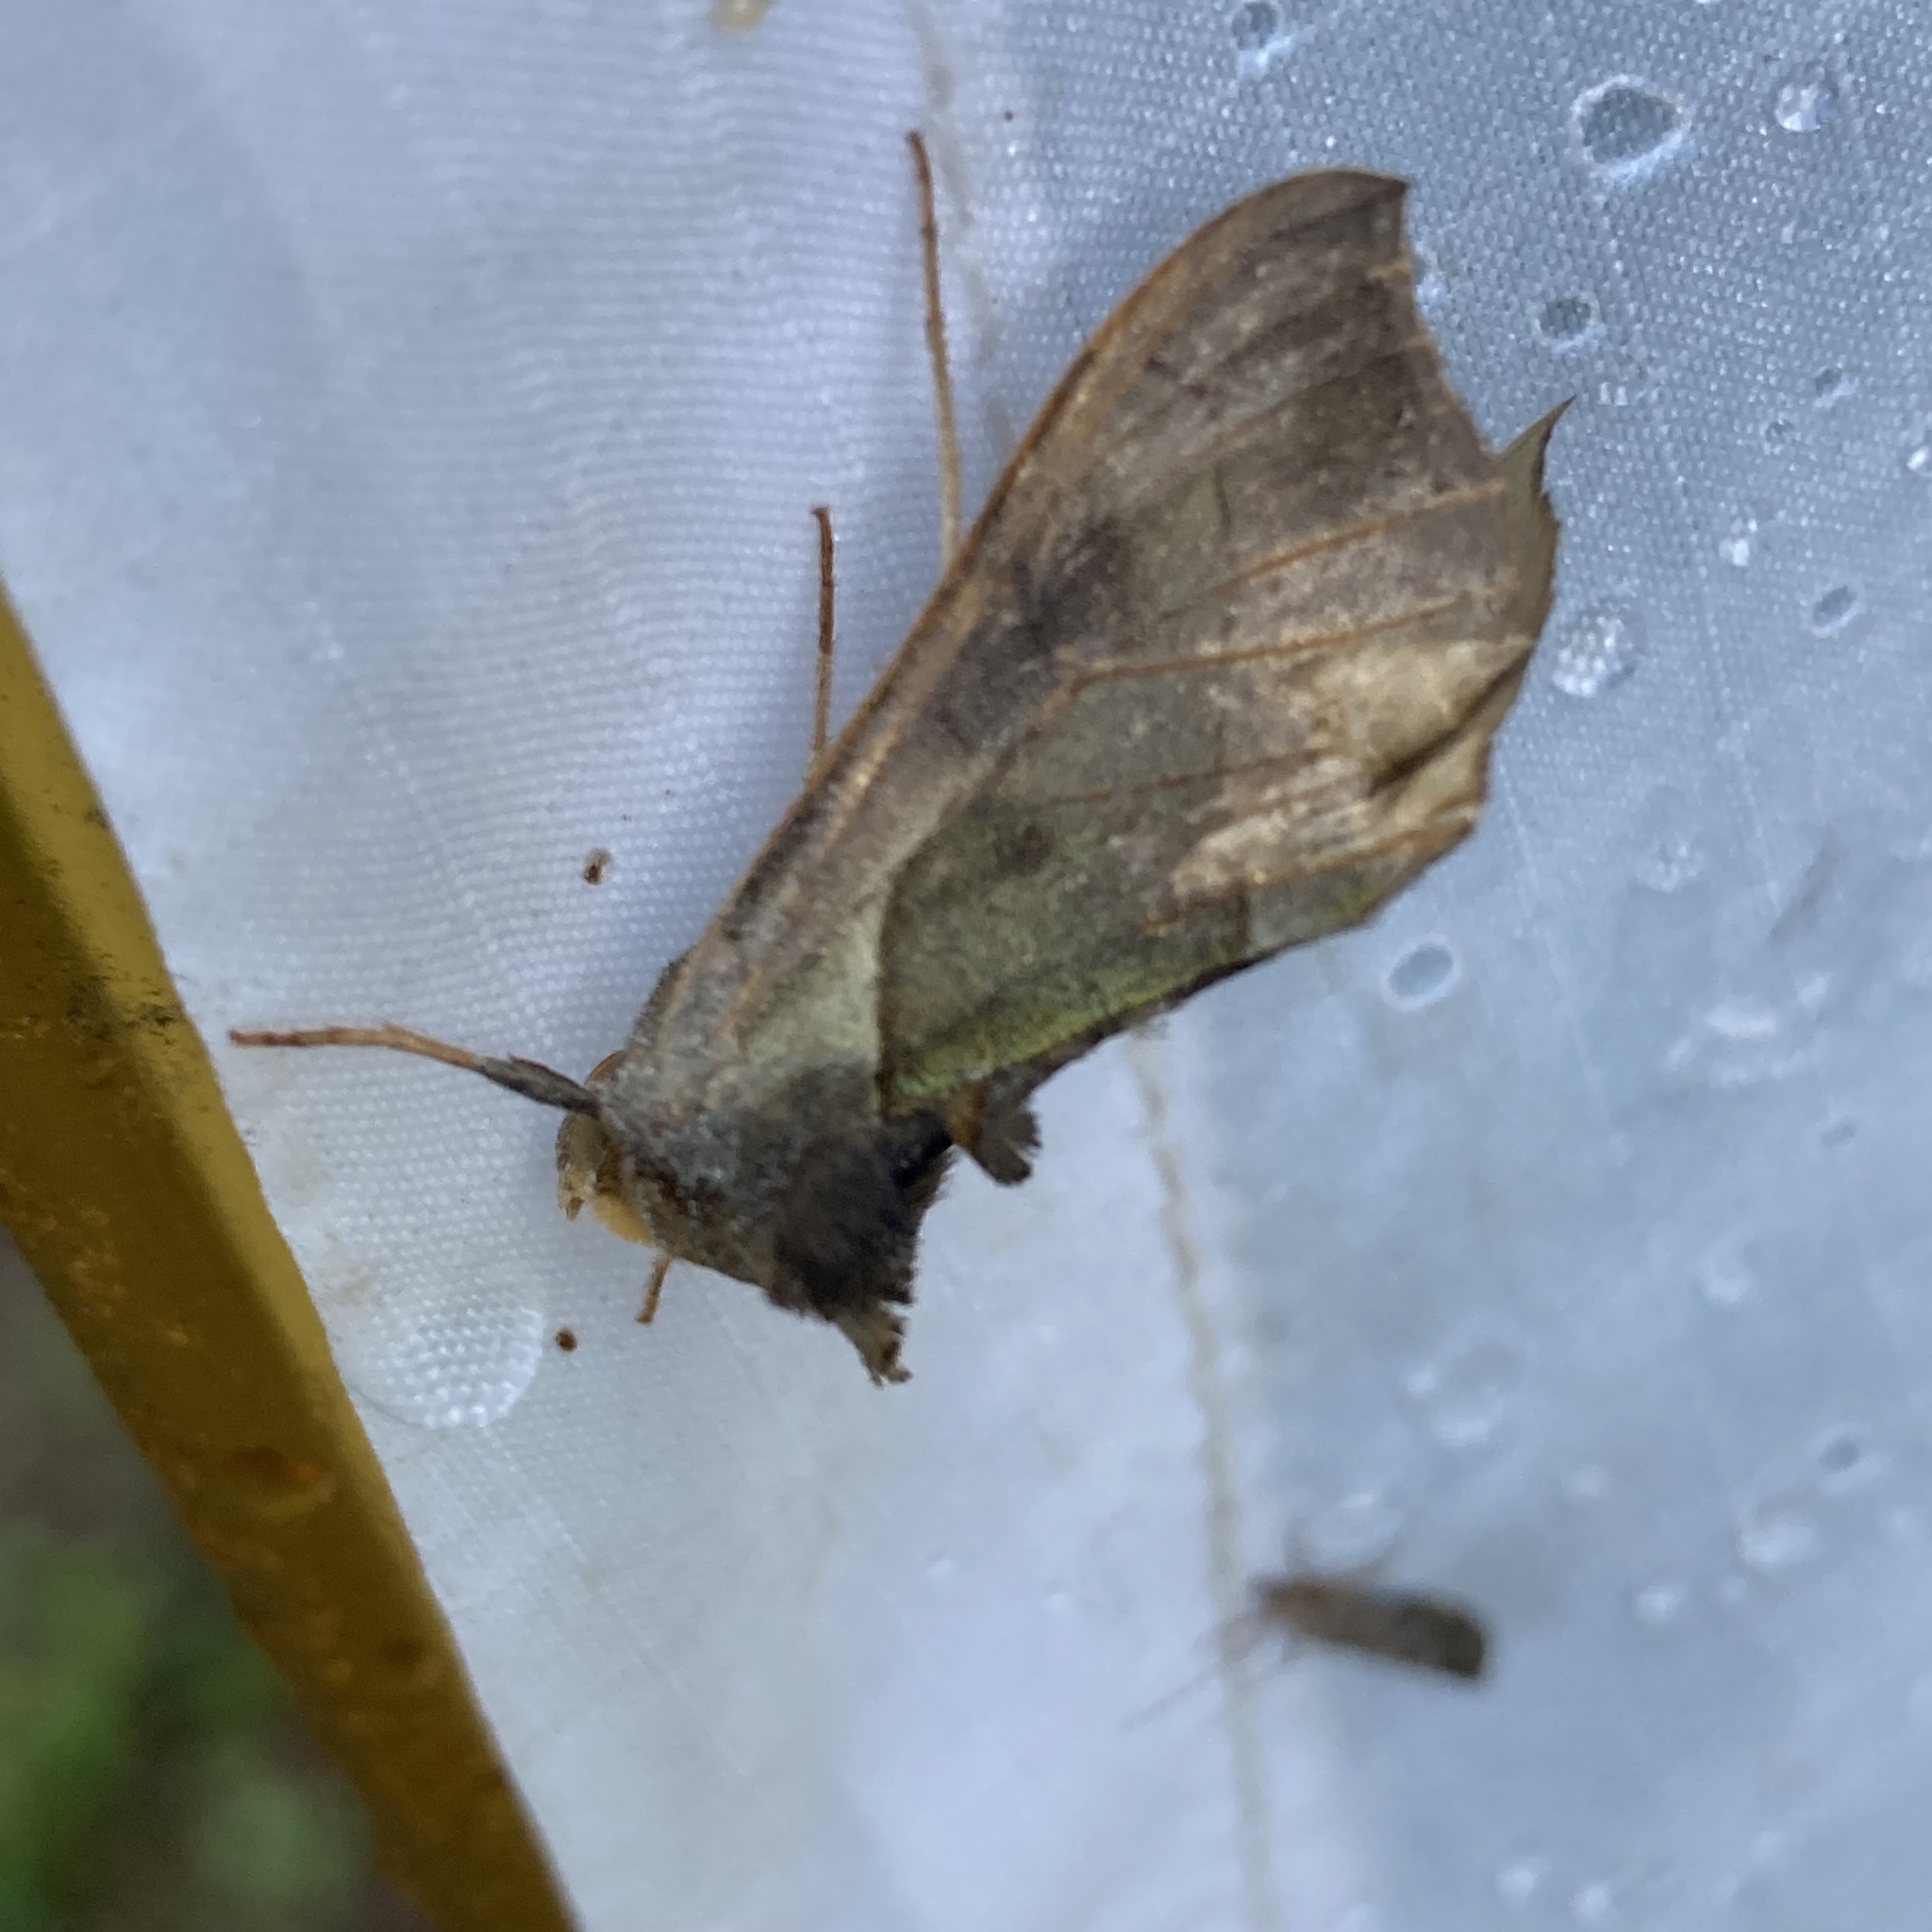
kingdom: Animalia
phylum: Arthropoda
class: Insecta
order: Lepidoptera
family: Noctuidae
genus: Diachrysia
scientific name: Diachrysia balluca
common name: Green-patched looper moth
